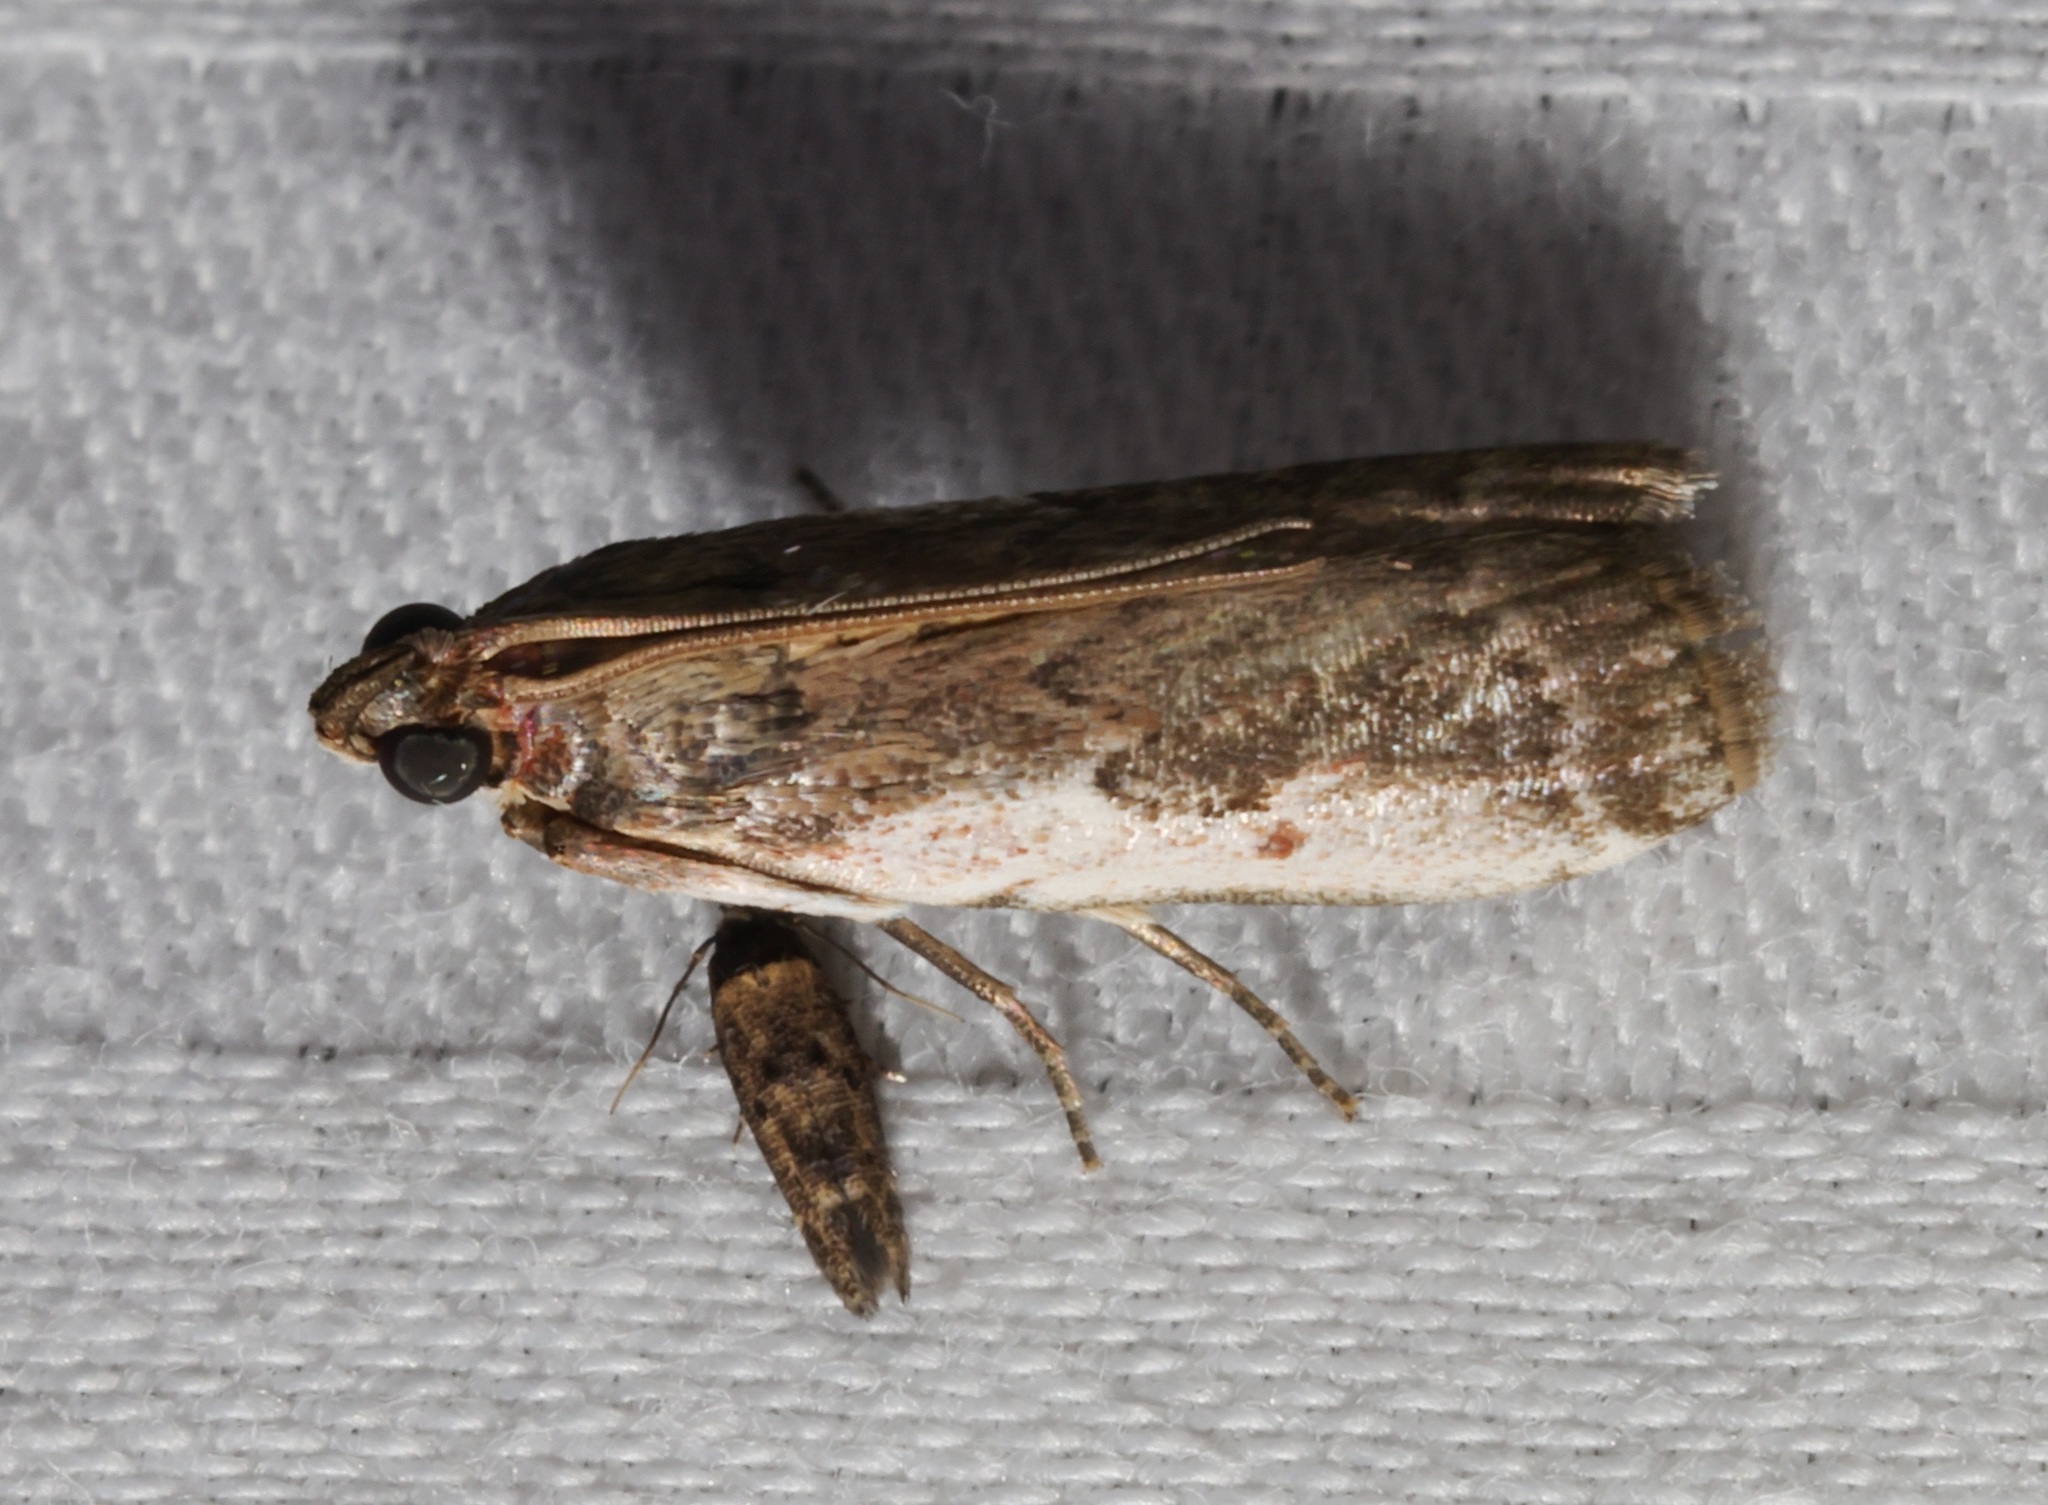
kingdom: Animalia
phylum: Arthropoda
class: Insecta
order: Lepidoptera
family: Pyralidae
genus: Rhodophaea
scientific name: Rhodophaea
